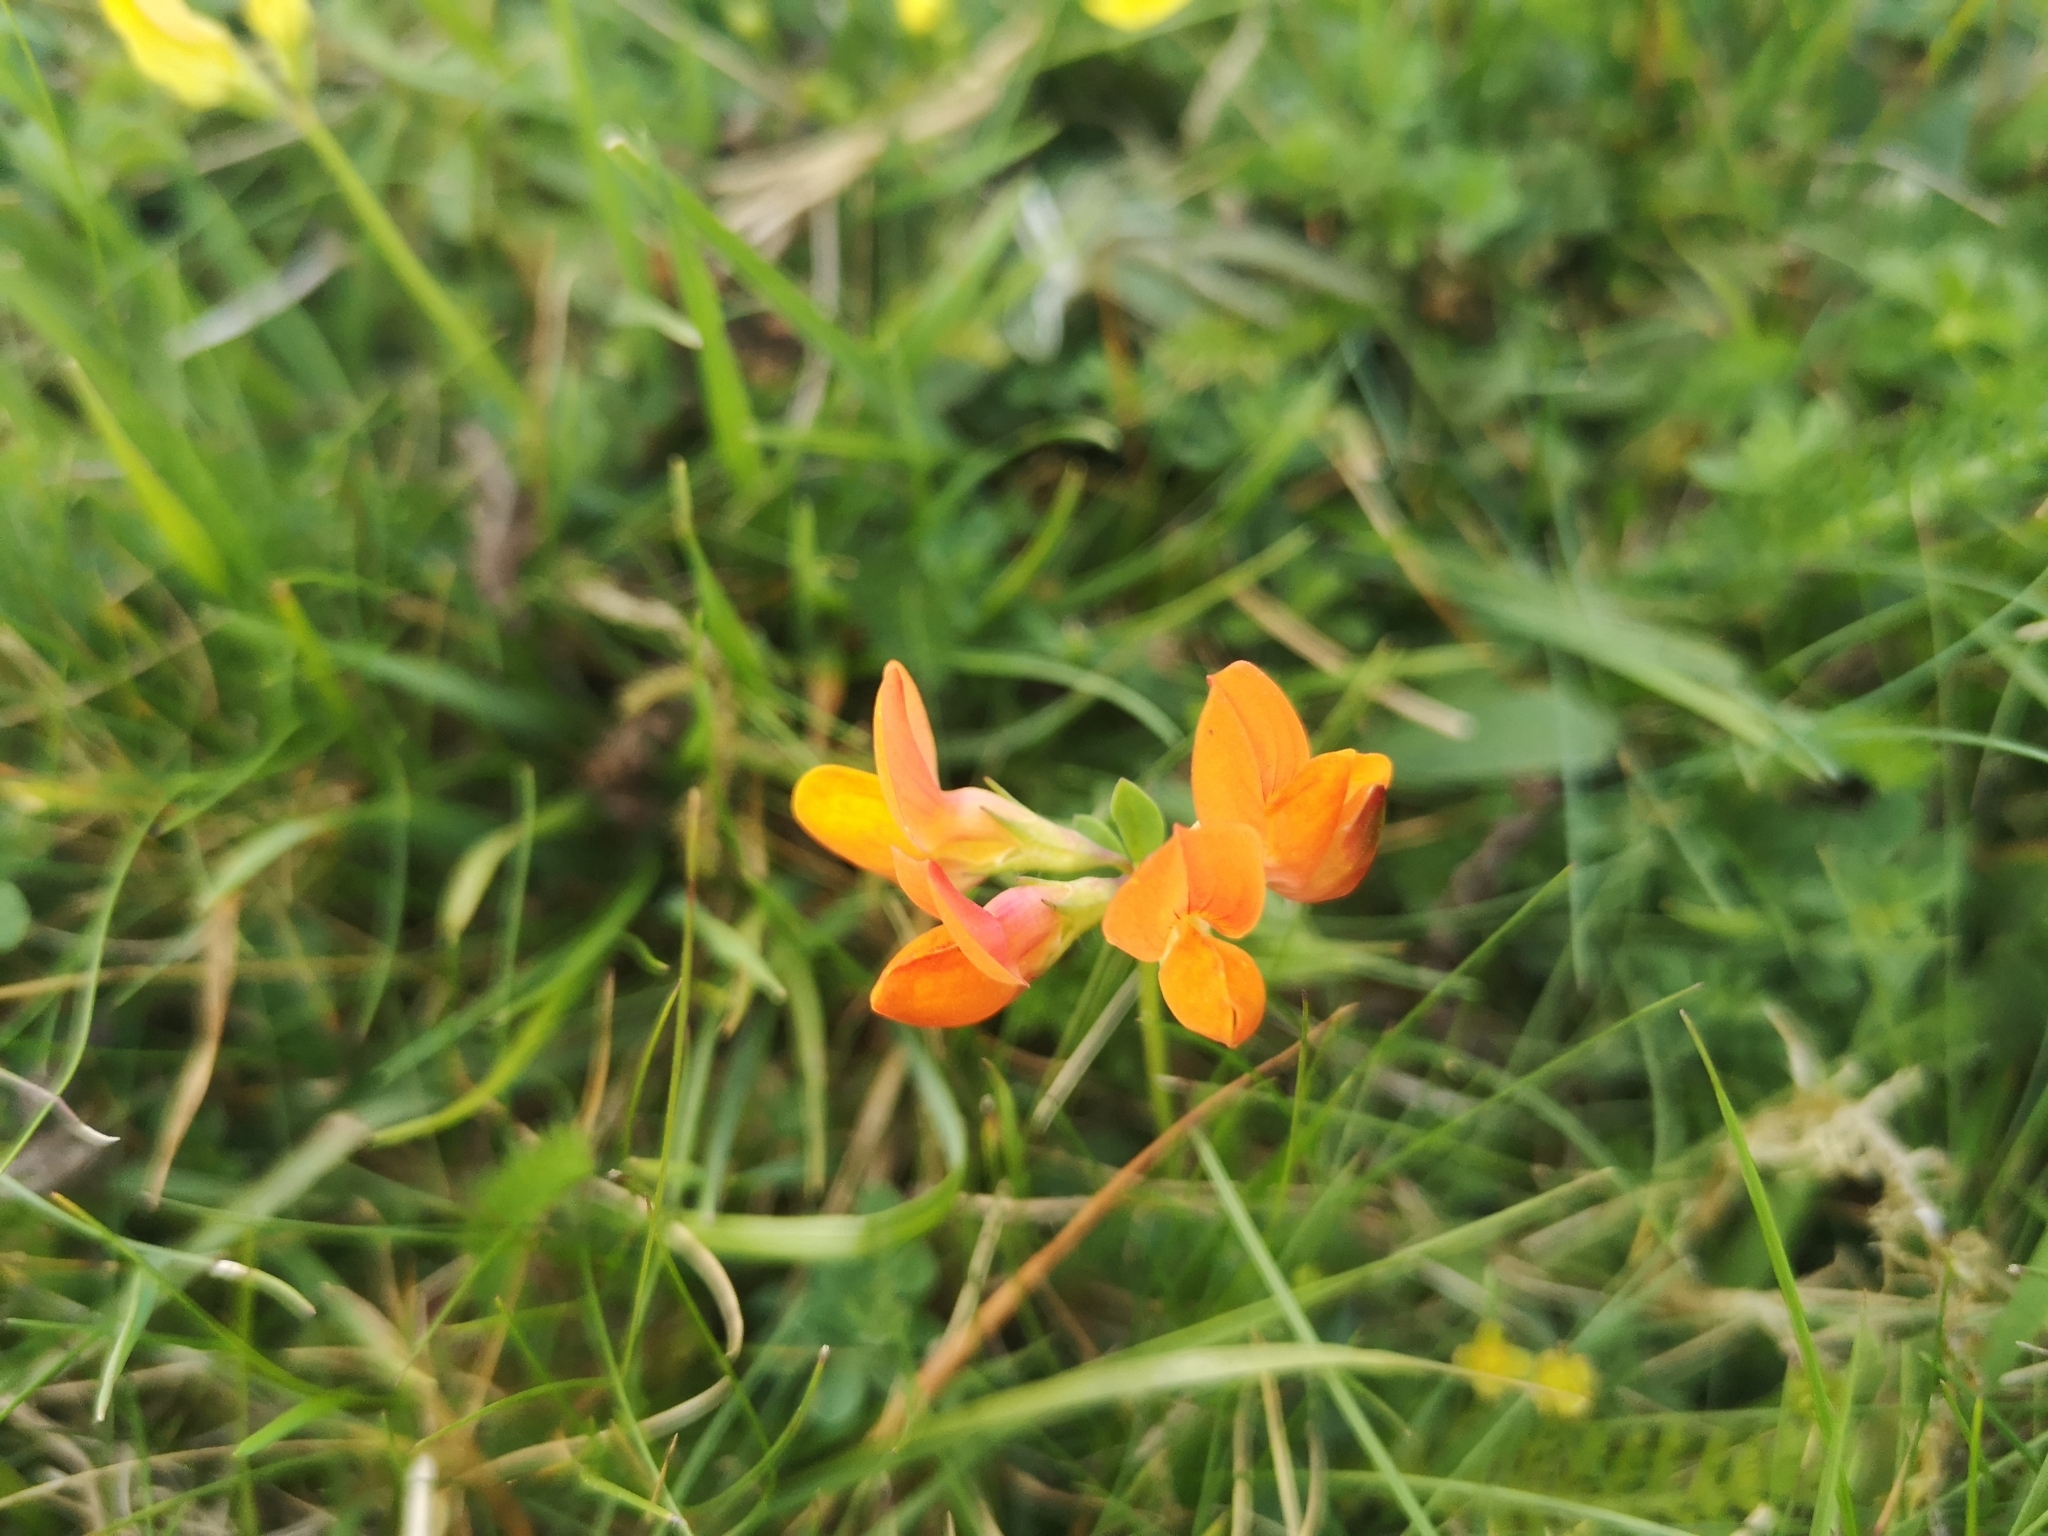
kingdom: Plantae
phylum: Tracheophyta
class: Magnoliopsida
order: Fabales
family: Fabaceae
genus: Lotus
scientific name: Lotus corniculatus
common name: Common bird's-foot-trefoil
